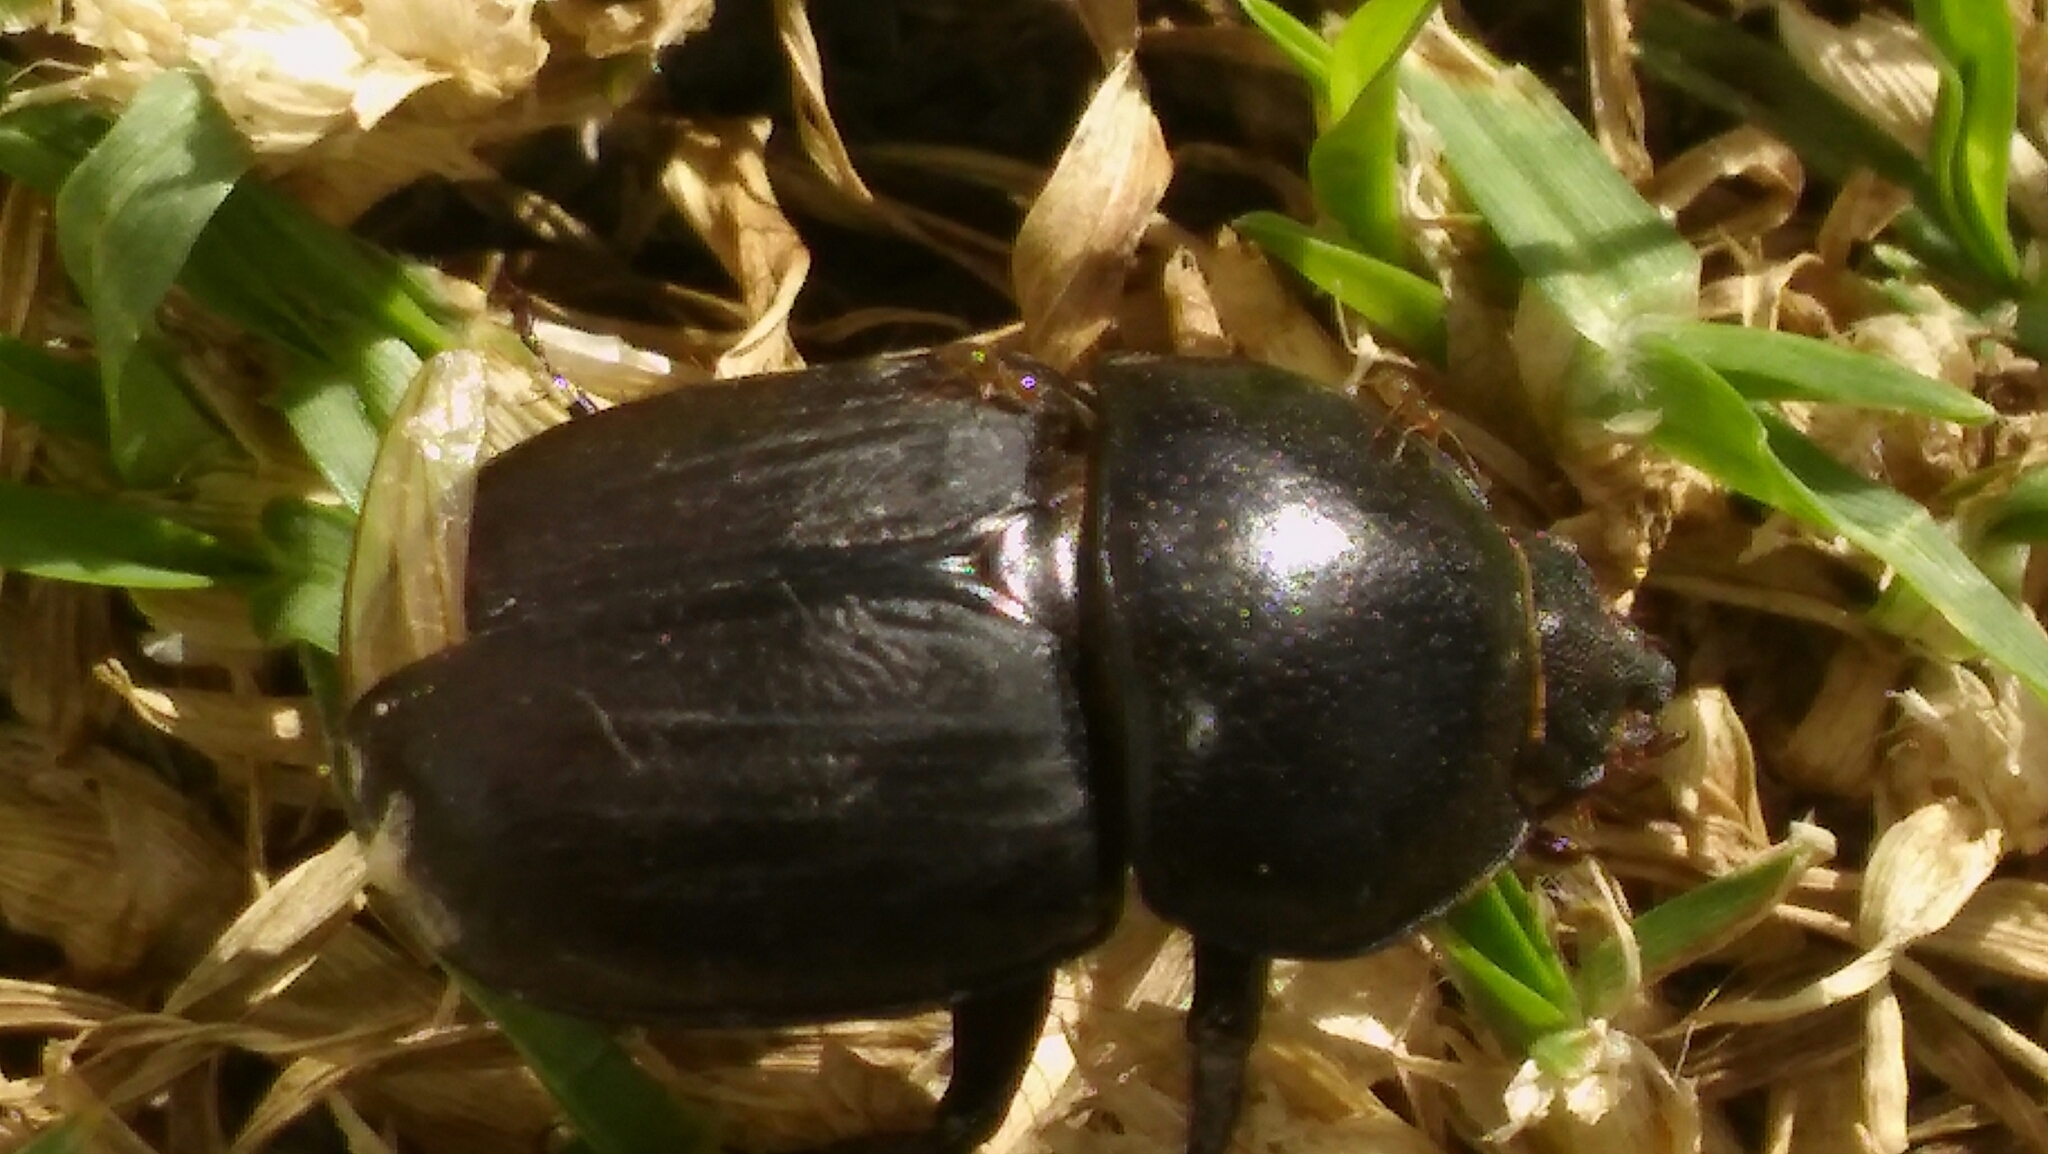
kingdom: Animalia
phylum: Arthropoda
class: Insecta
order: Coleoptera
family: Scarabaeidae
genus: Diloboderus
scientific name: Diloboderus abderus
